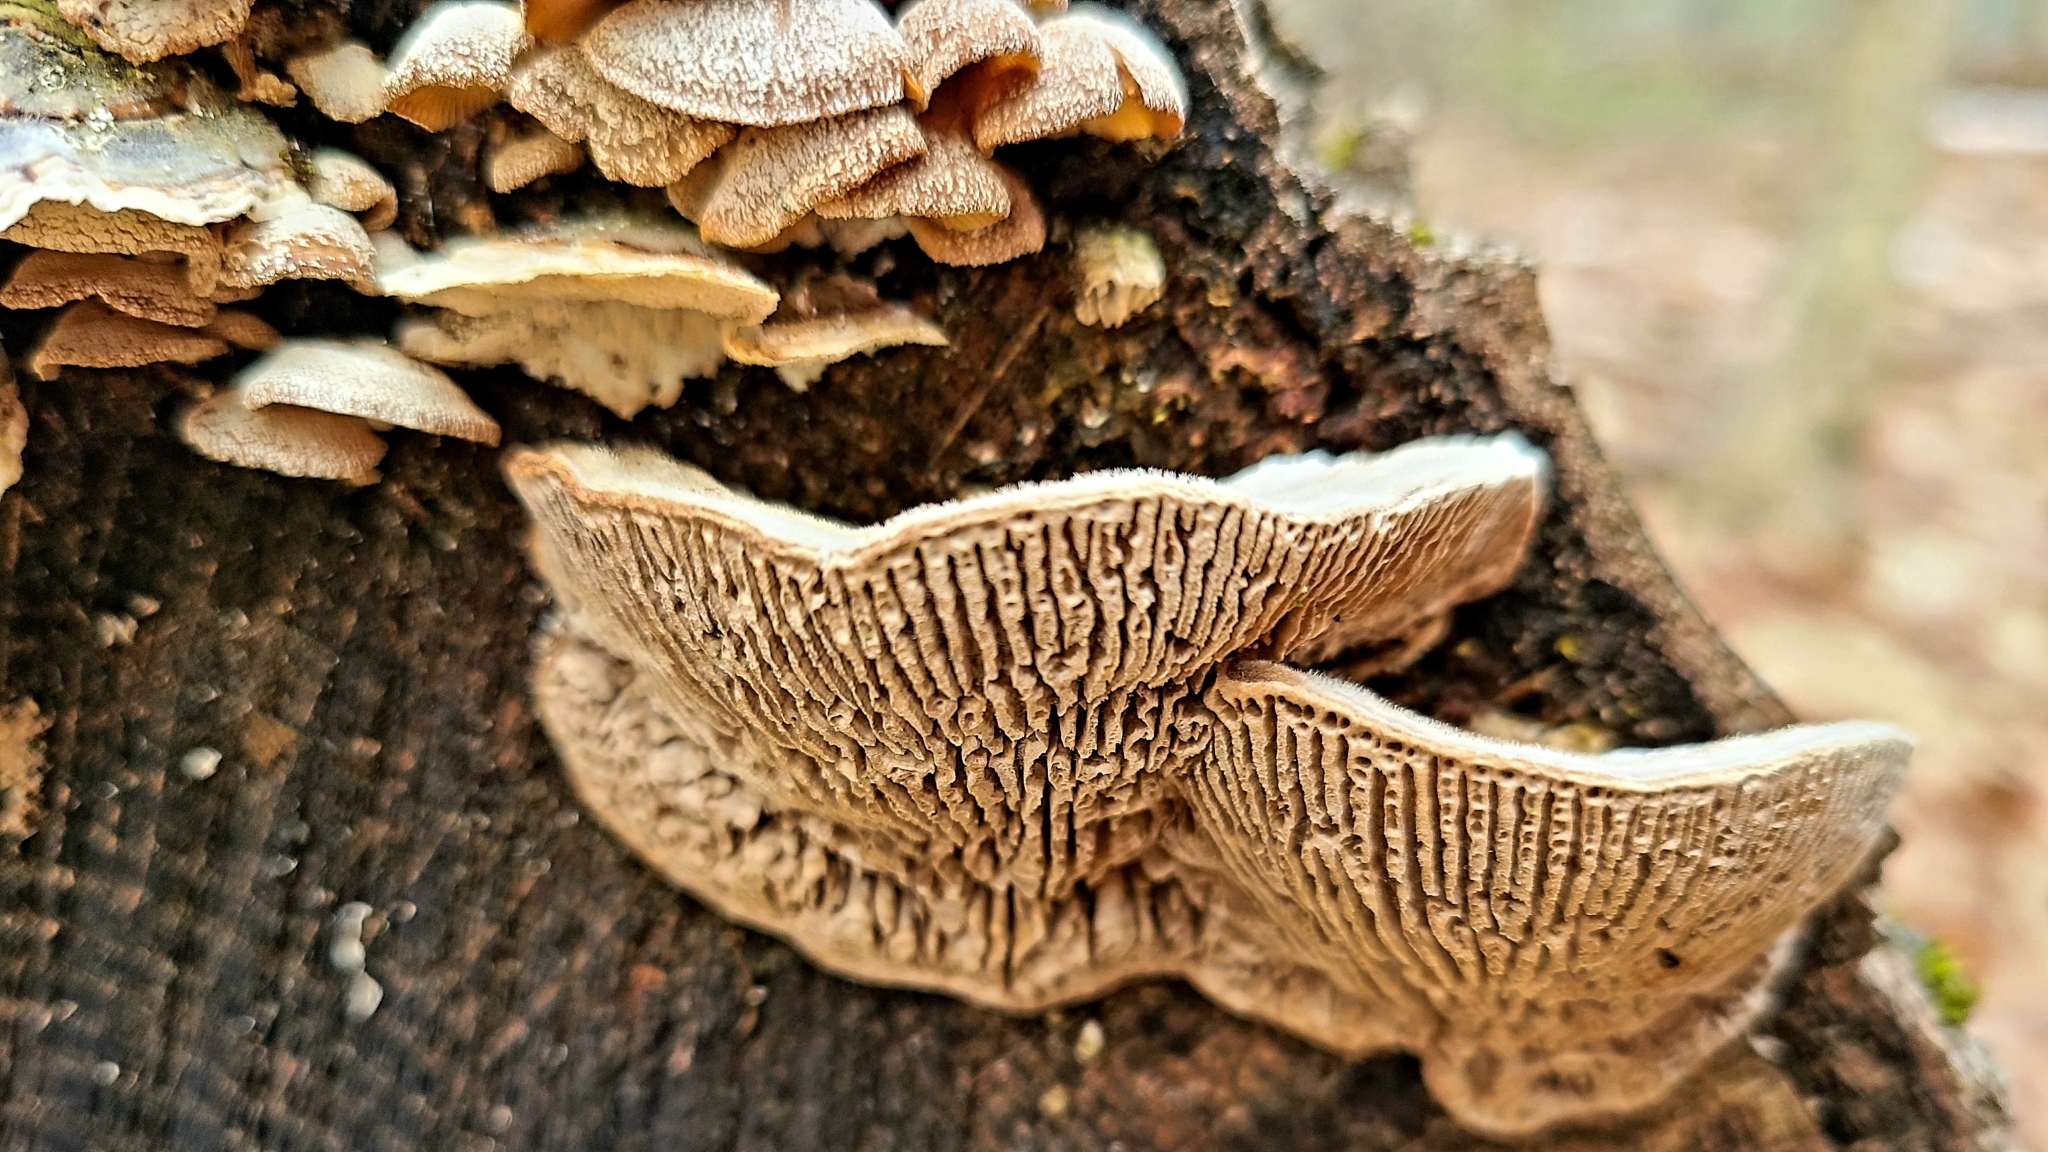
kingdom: Fungi
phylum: Basidiomycota
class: Agaricomycetes
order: Polyporales
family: Polyporaceae
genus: Lenzites
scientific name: Lenzites betulinus
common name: Birch mazegill
